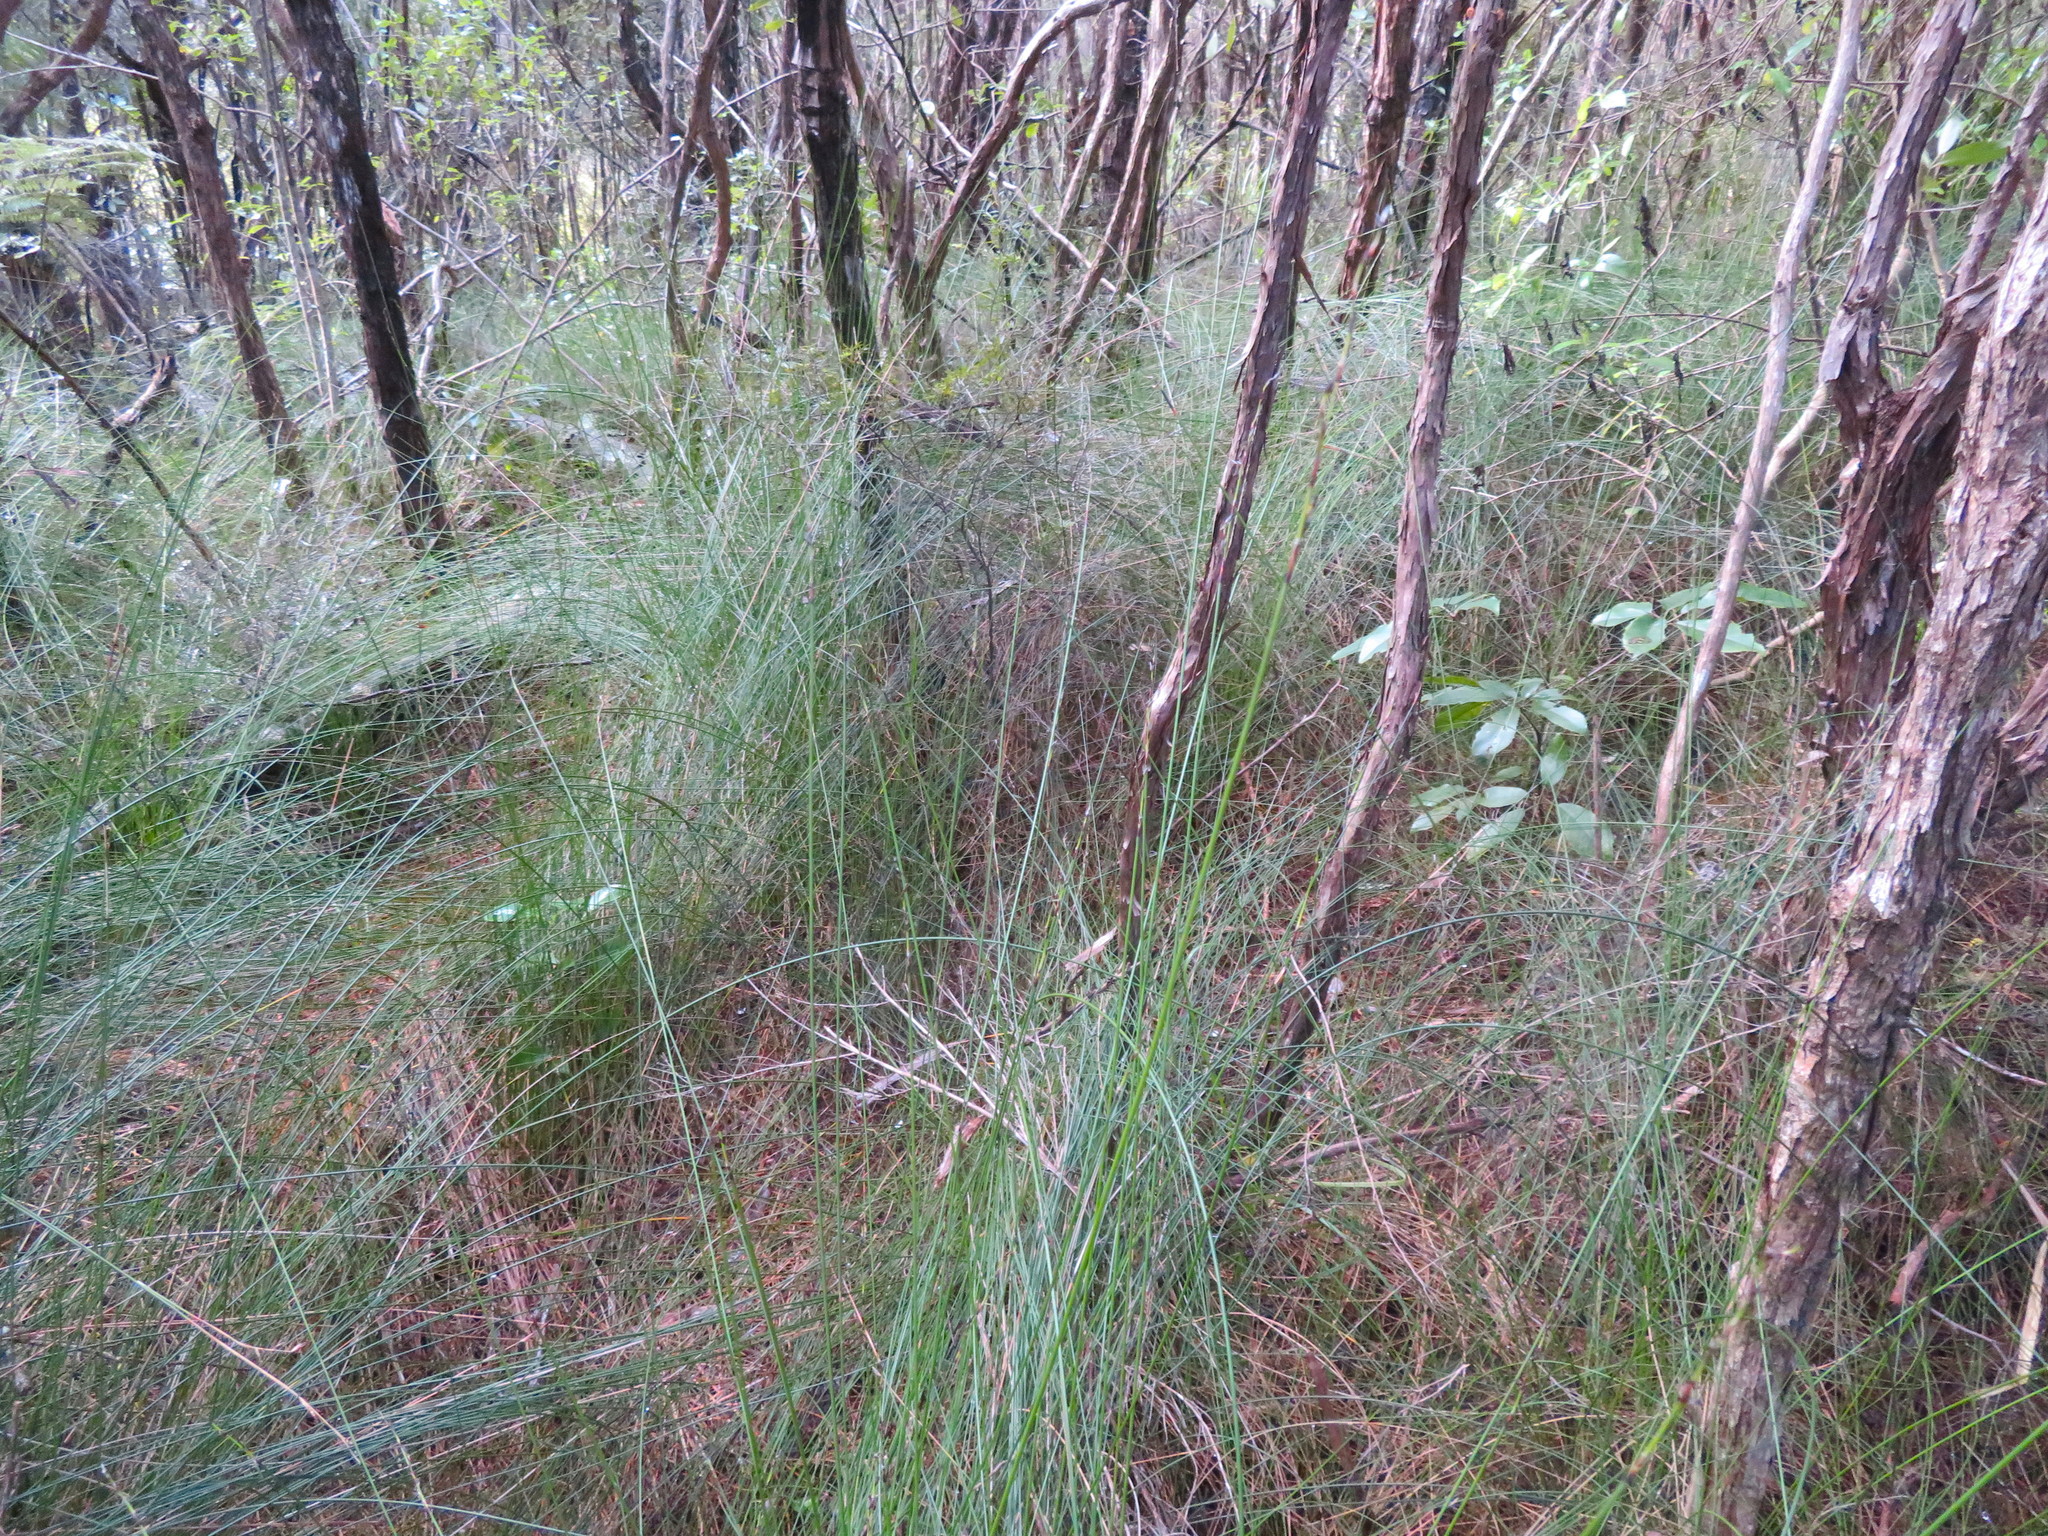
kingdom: Plantae
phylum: Tracheophyta
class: Magnoliopsida
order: Apiales
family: Araliaceae
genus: Neopanax
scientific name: Neopanax arboreus
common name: Five-fingers
